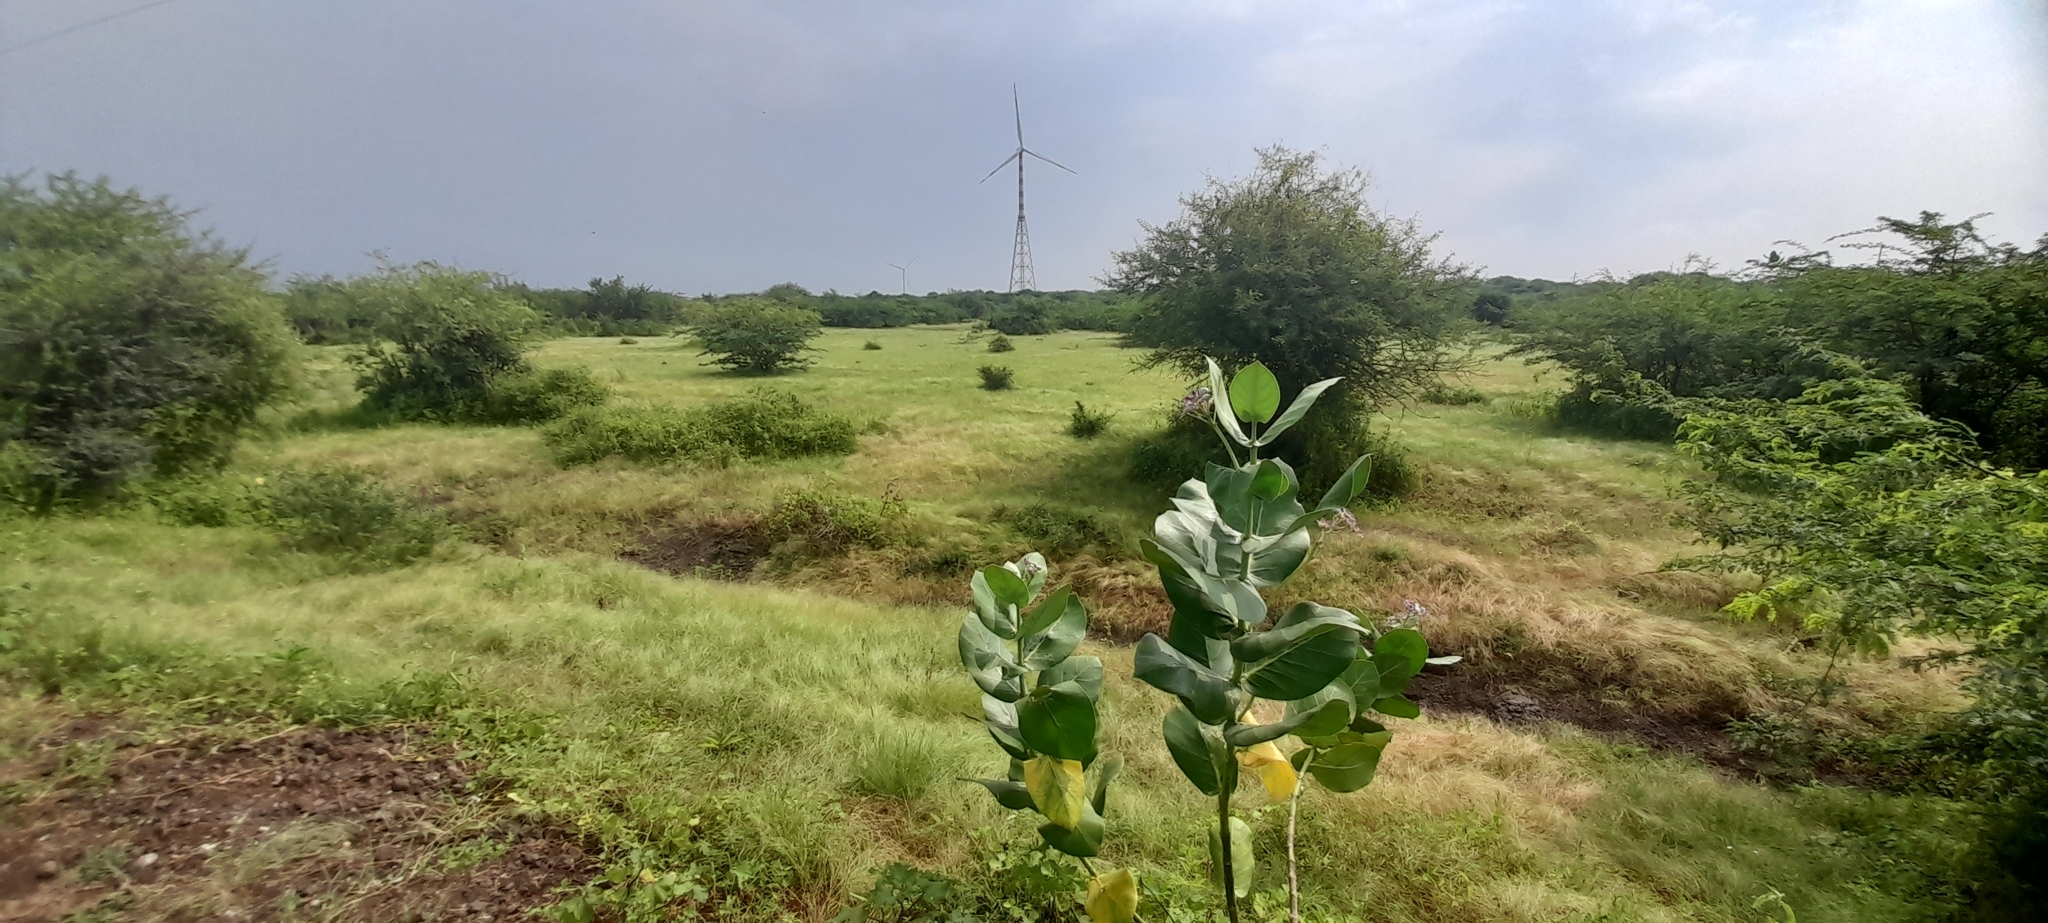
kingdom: Plantae
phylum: Tracheophyta
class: Magnoliopsida
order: Gentianales
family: Apocynaceae
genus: Calotropis
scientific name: Calotropis procera
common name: Roostertree
